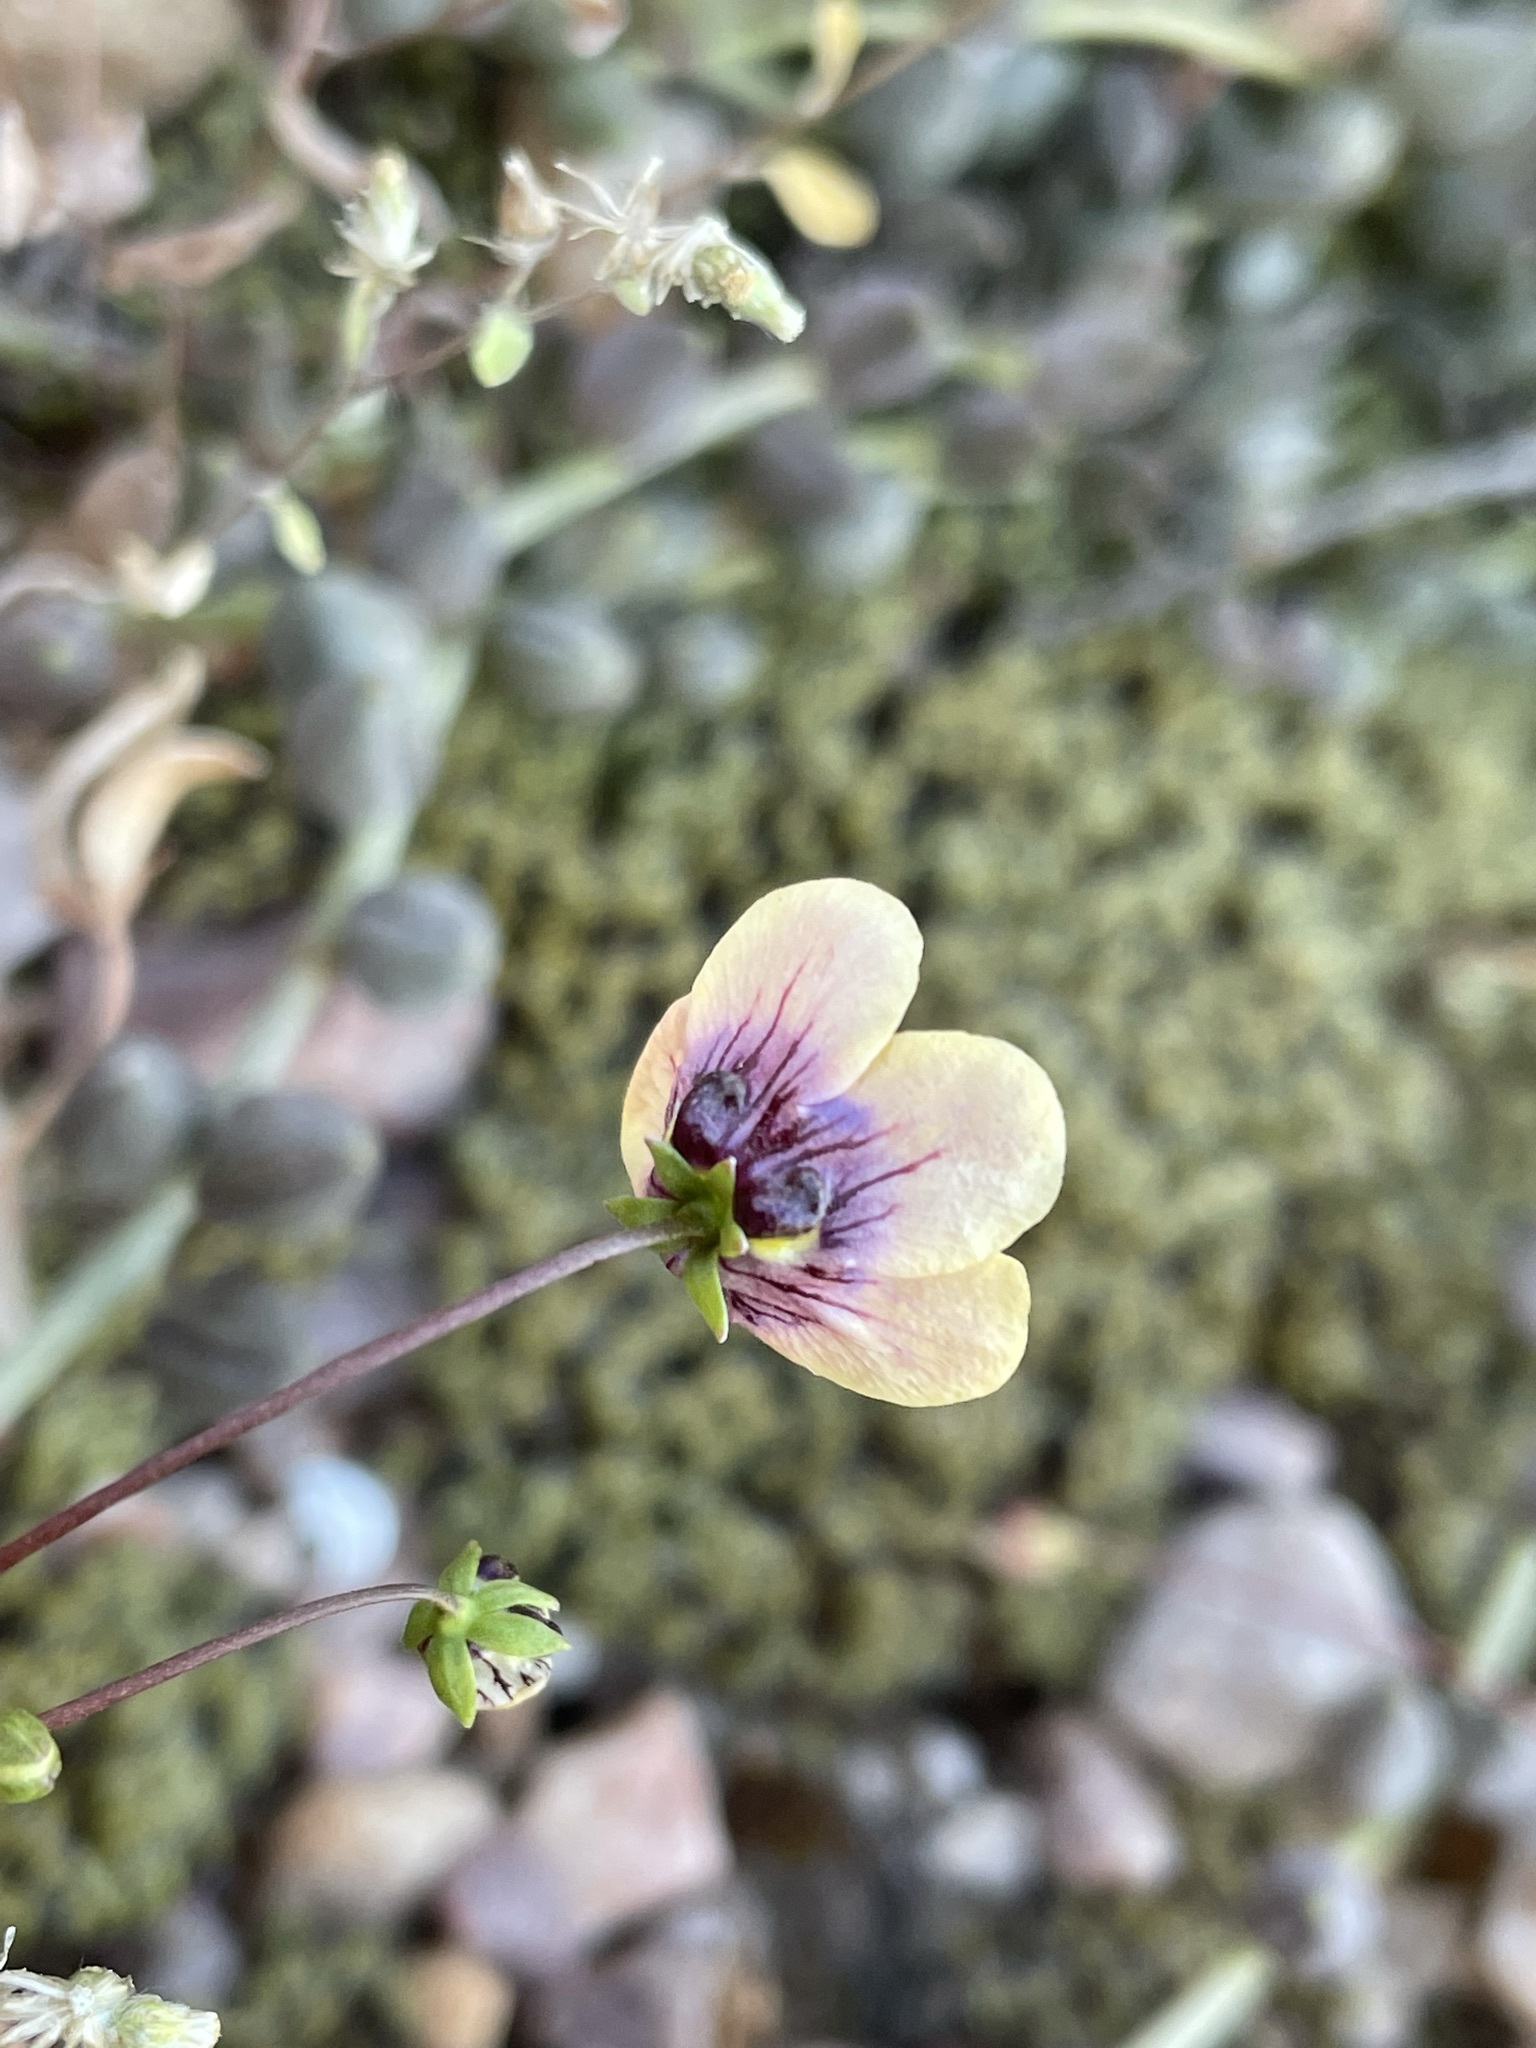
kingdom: Plantae
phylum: Tracheophyta
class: Magnoliopsida
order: Lamiales
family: Scrophulariaceae
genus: Diascia
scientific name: Diascia bicolor
